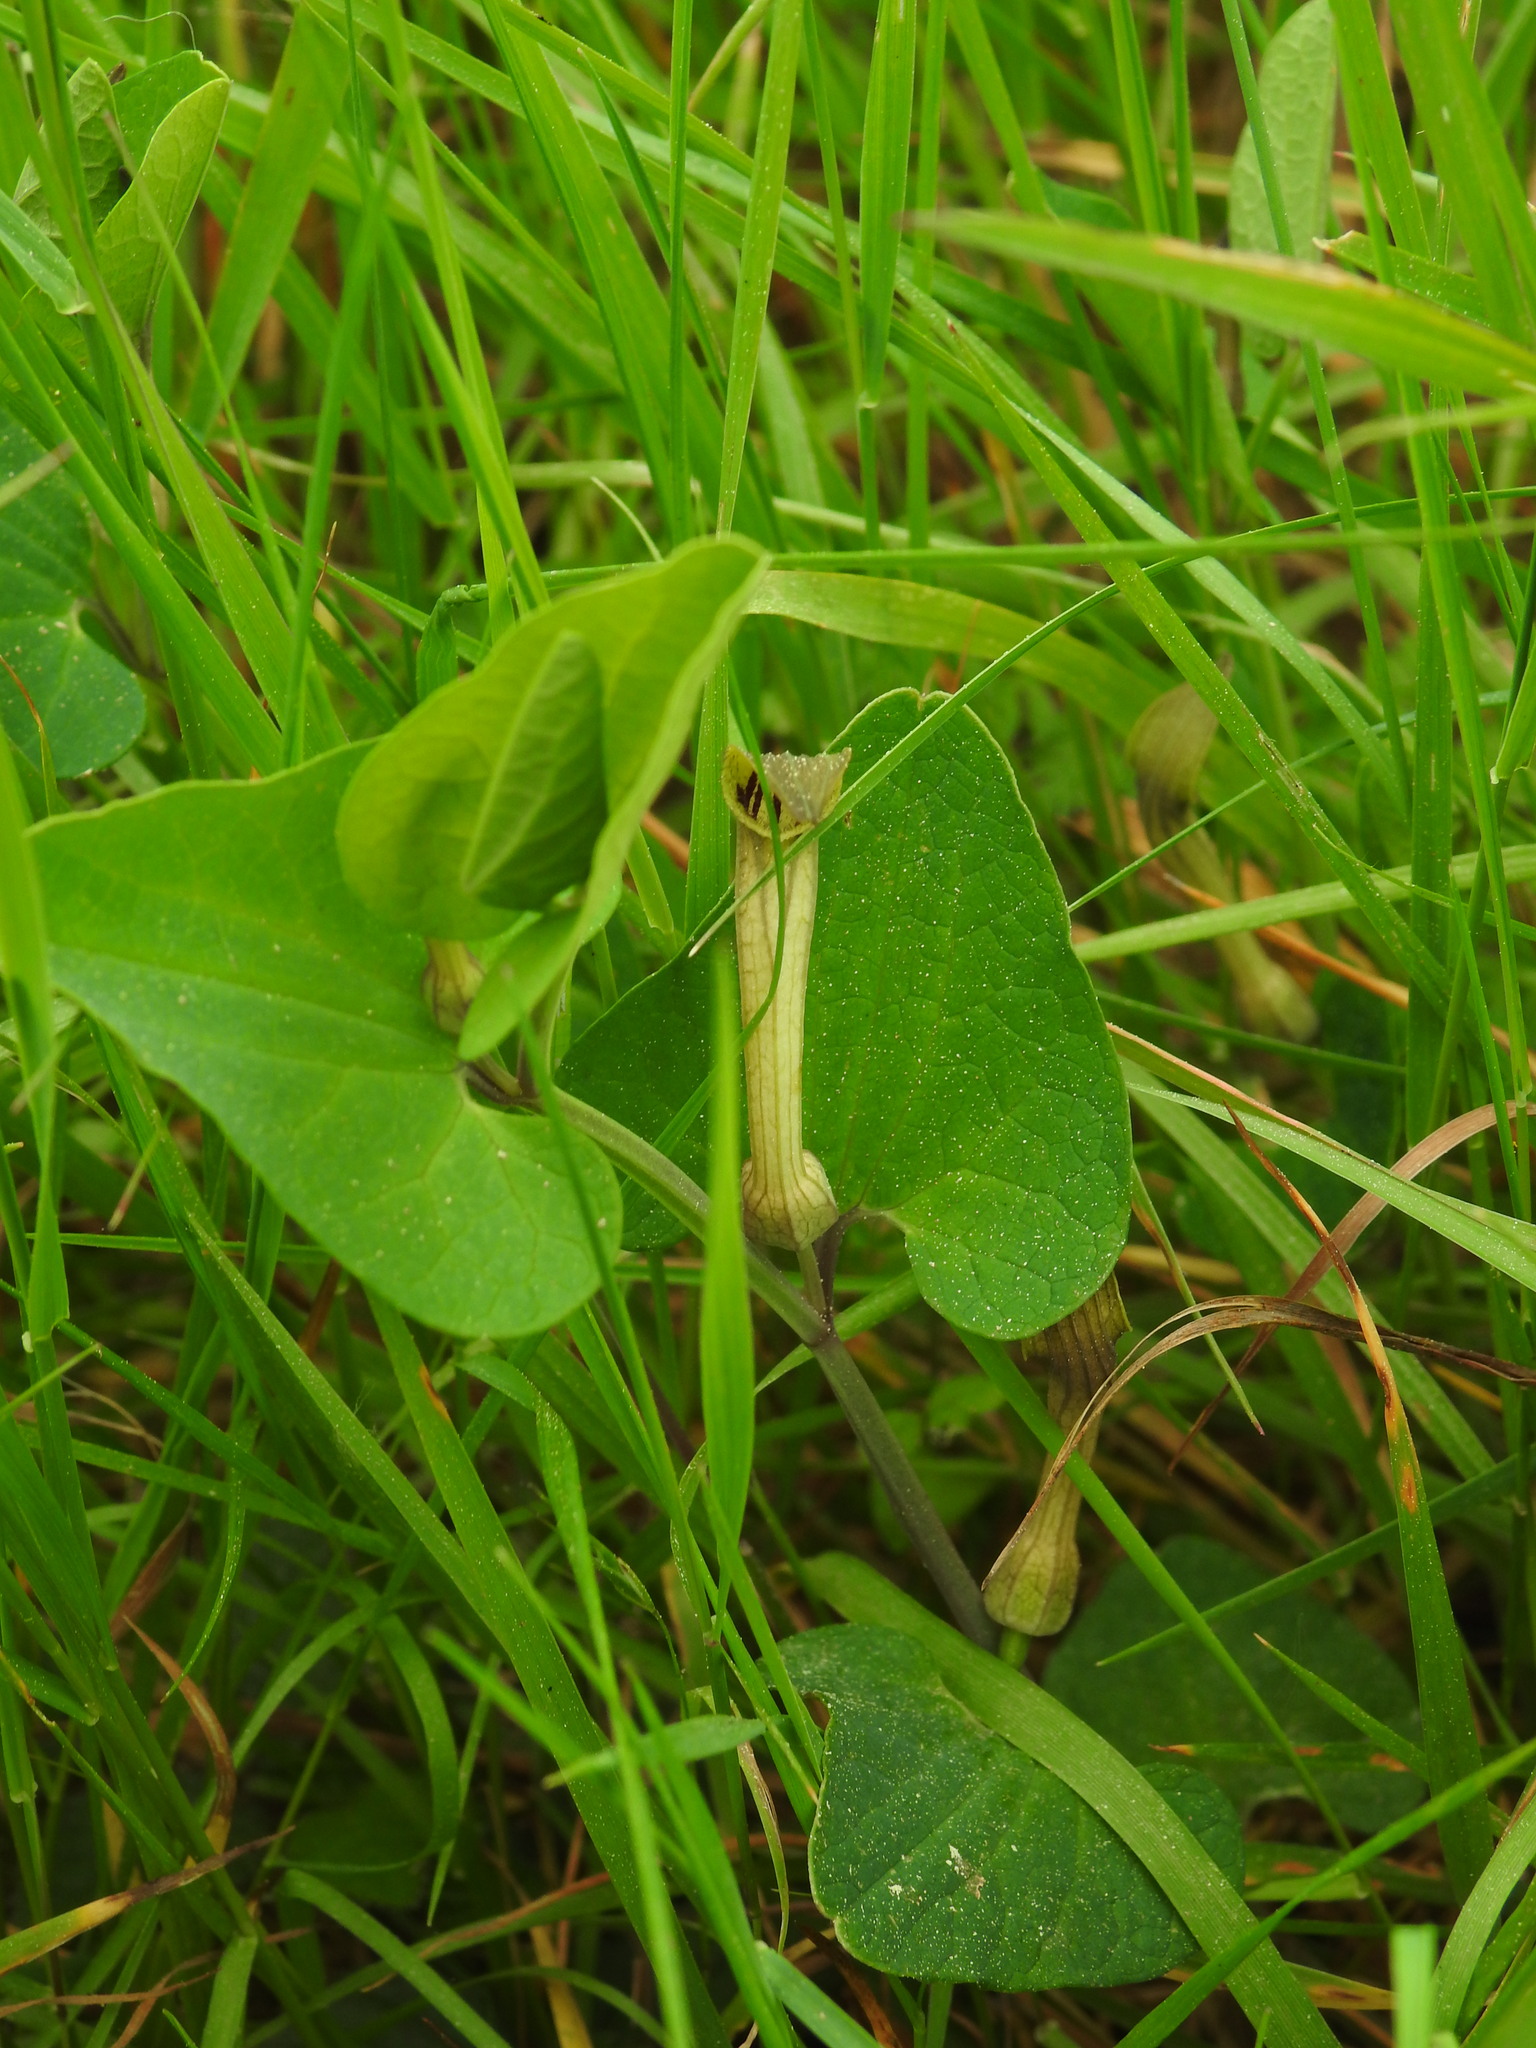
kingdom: Plantae
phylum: Tracheophyta
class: Magnoliopsida
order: Piperales
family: Aristolochiaceae
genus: Aristolochia
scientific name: Aristolochia paucinervis
